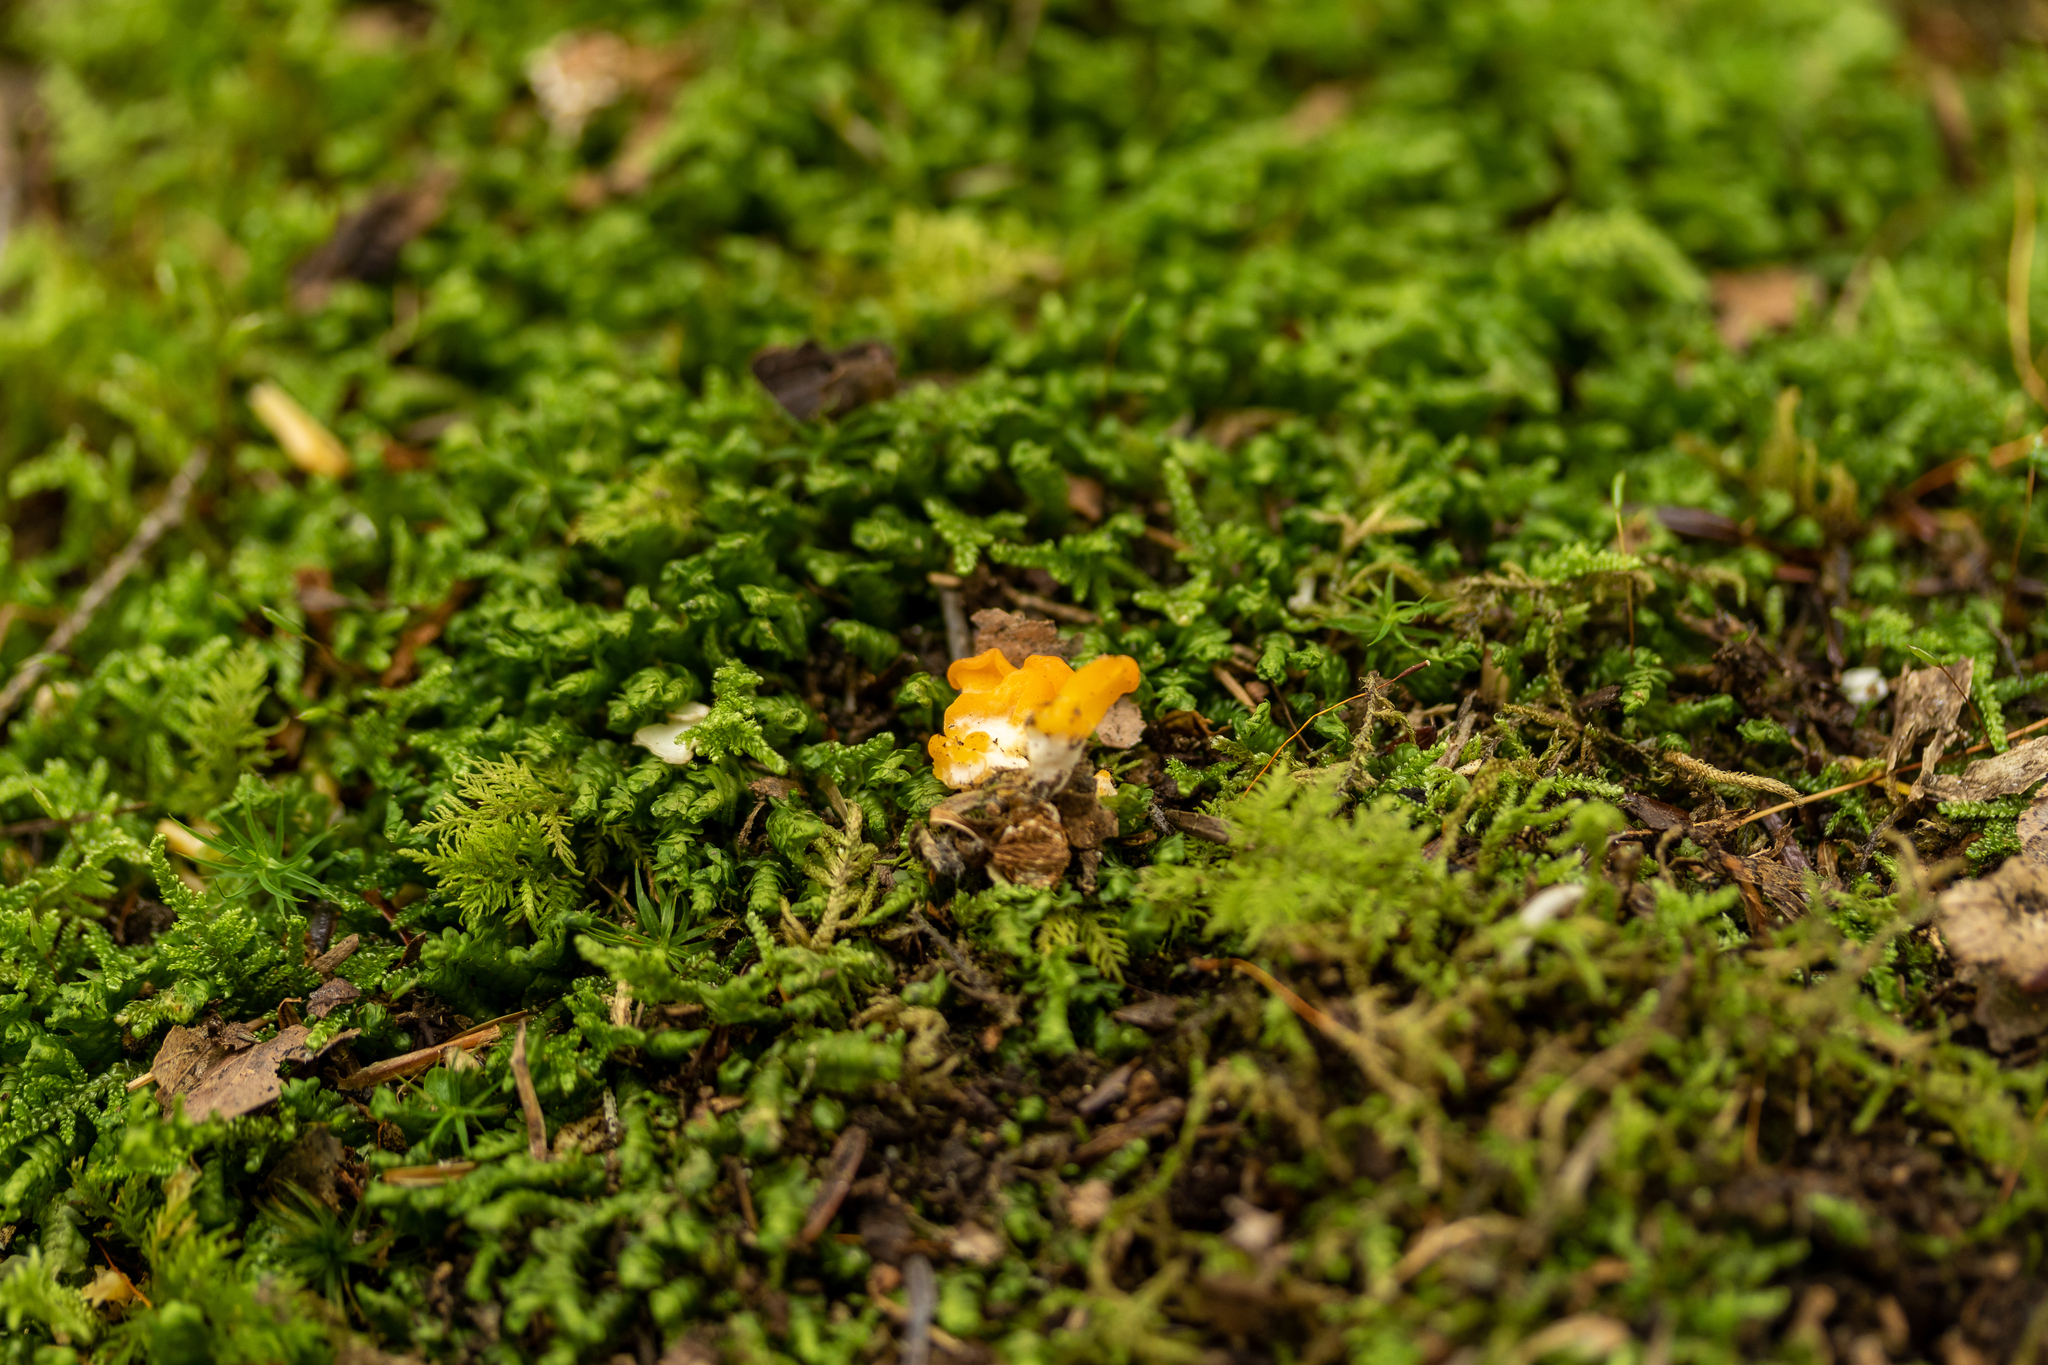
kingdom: Fungi
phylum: Basidiomycota
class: Dacrymycetes
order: Dacrymycetales
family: Dacrymycetaceae
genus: Dacrymyces
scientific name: Dacrymyces chrysospermus
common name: Orange jelly spot
